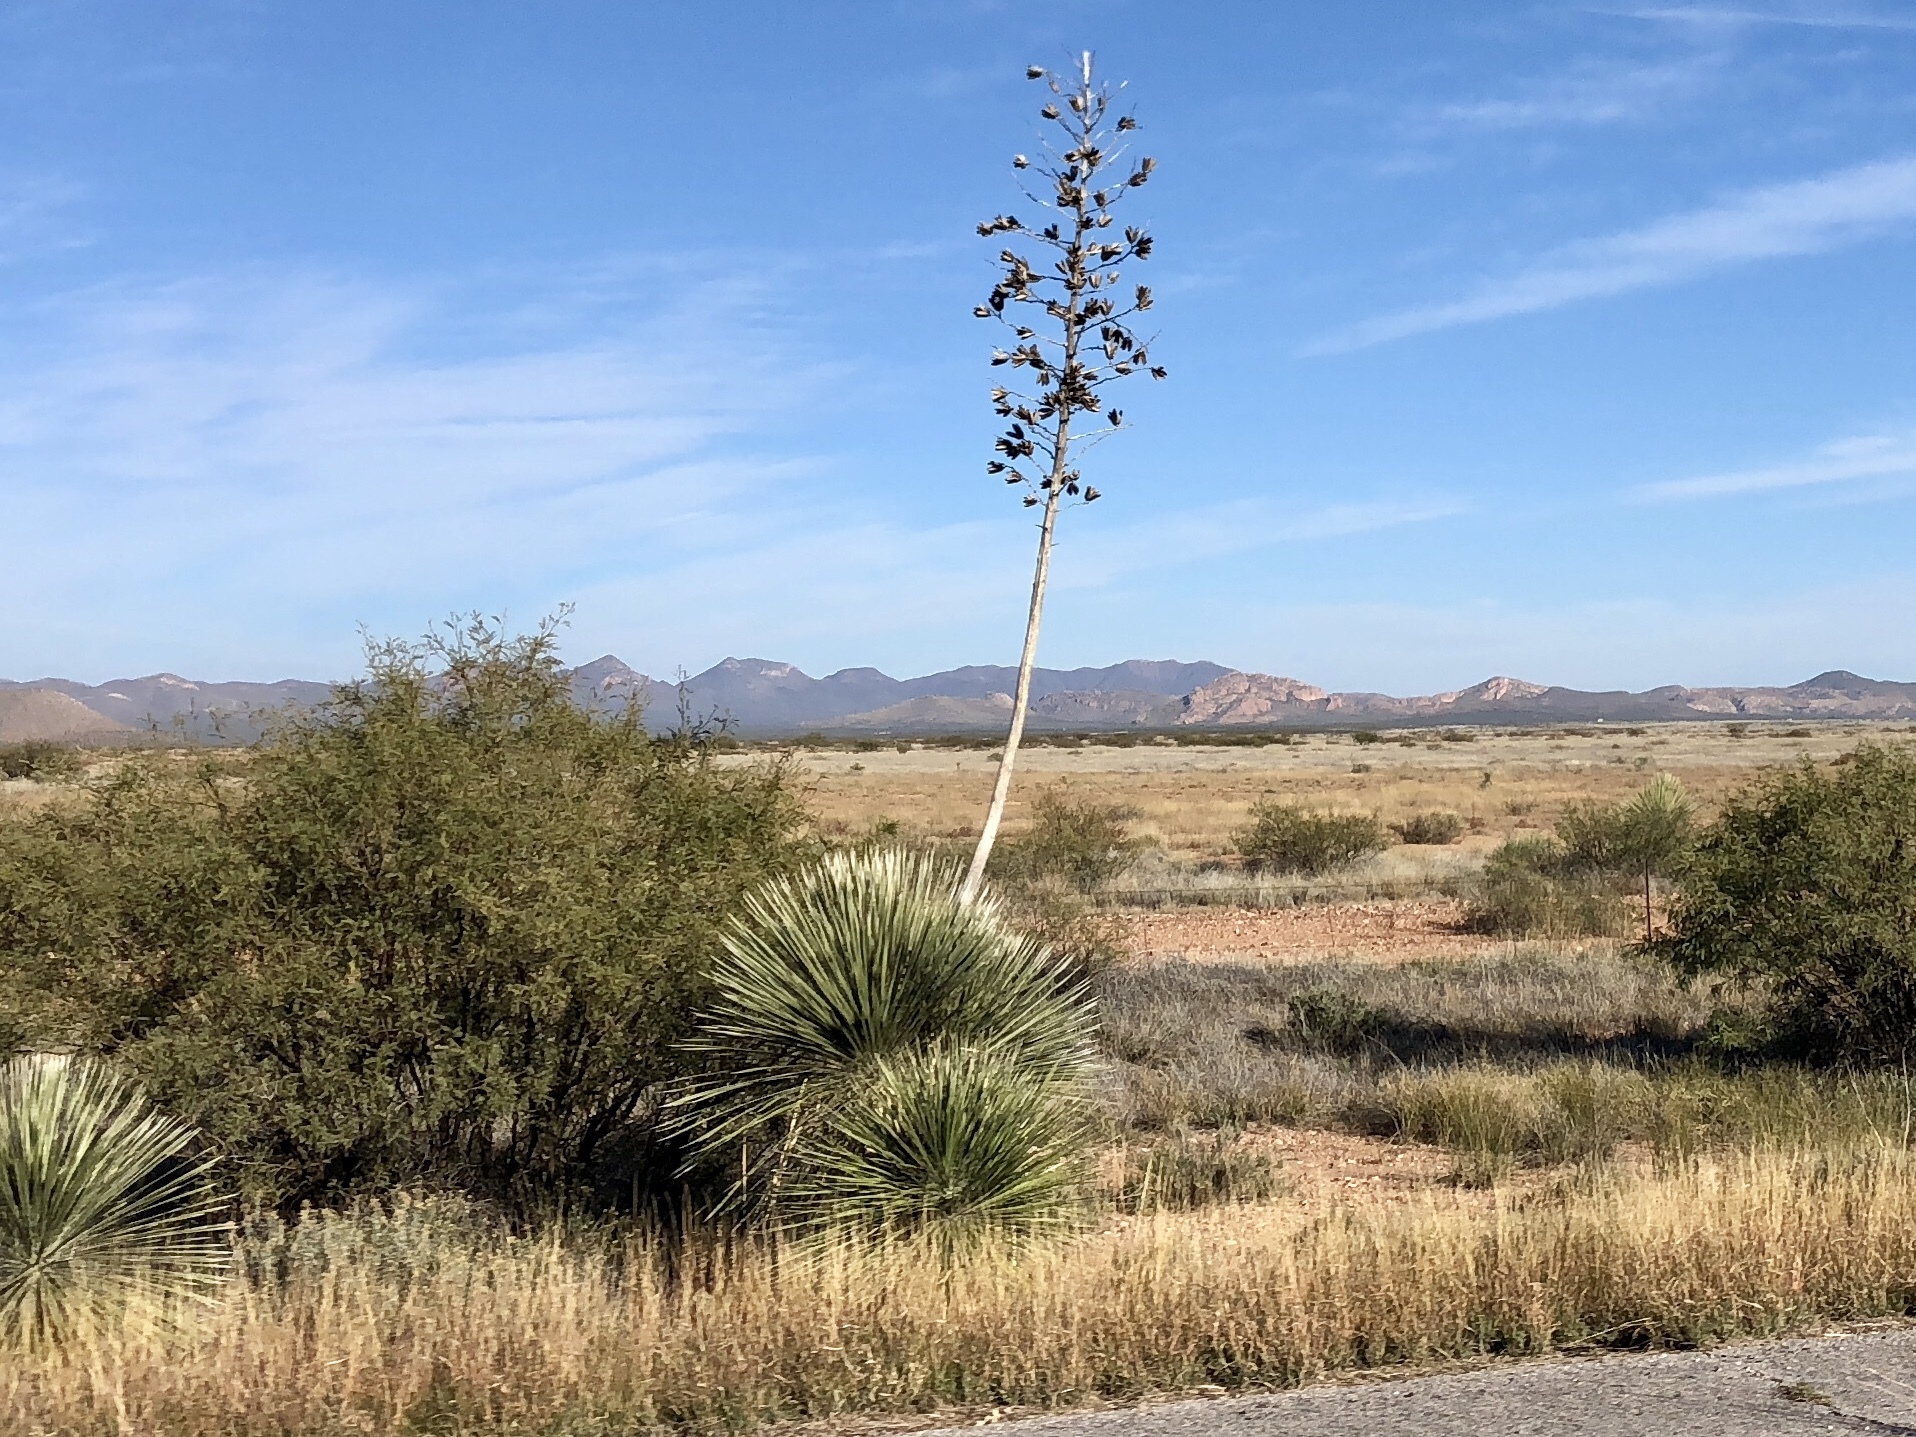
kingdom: Plantae
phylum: Tracheophyta
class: Liliopsida
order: Asparagales
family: Asparagaceae
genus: Yucca
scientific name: Yucca elata
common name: Palmella
